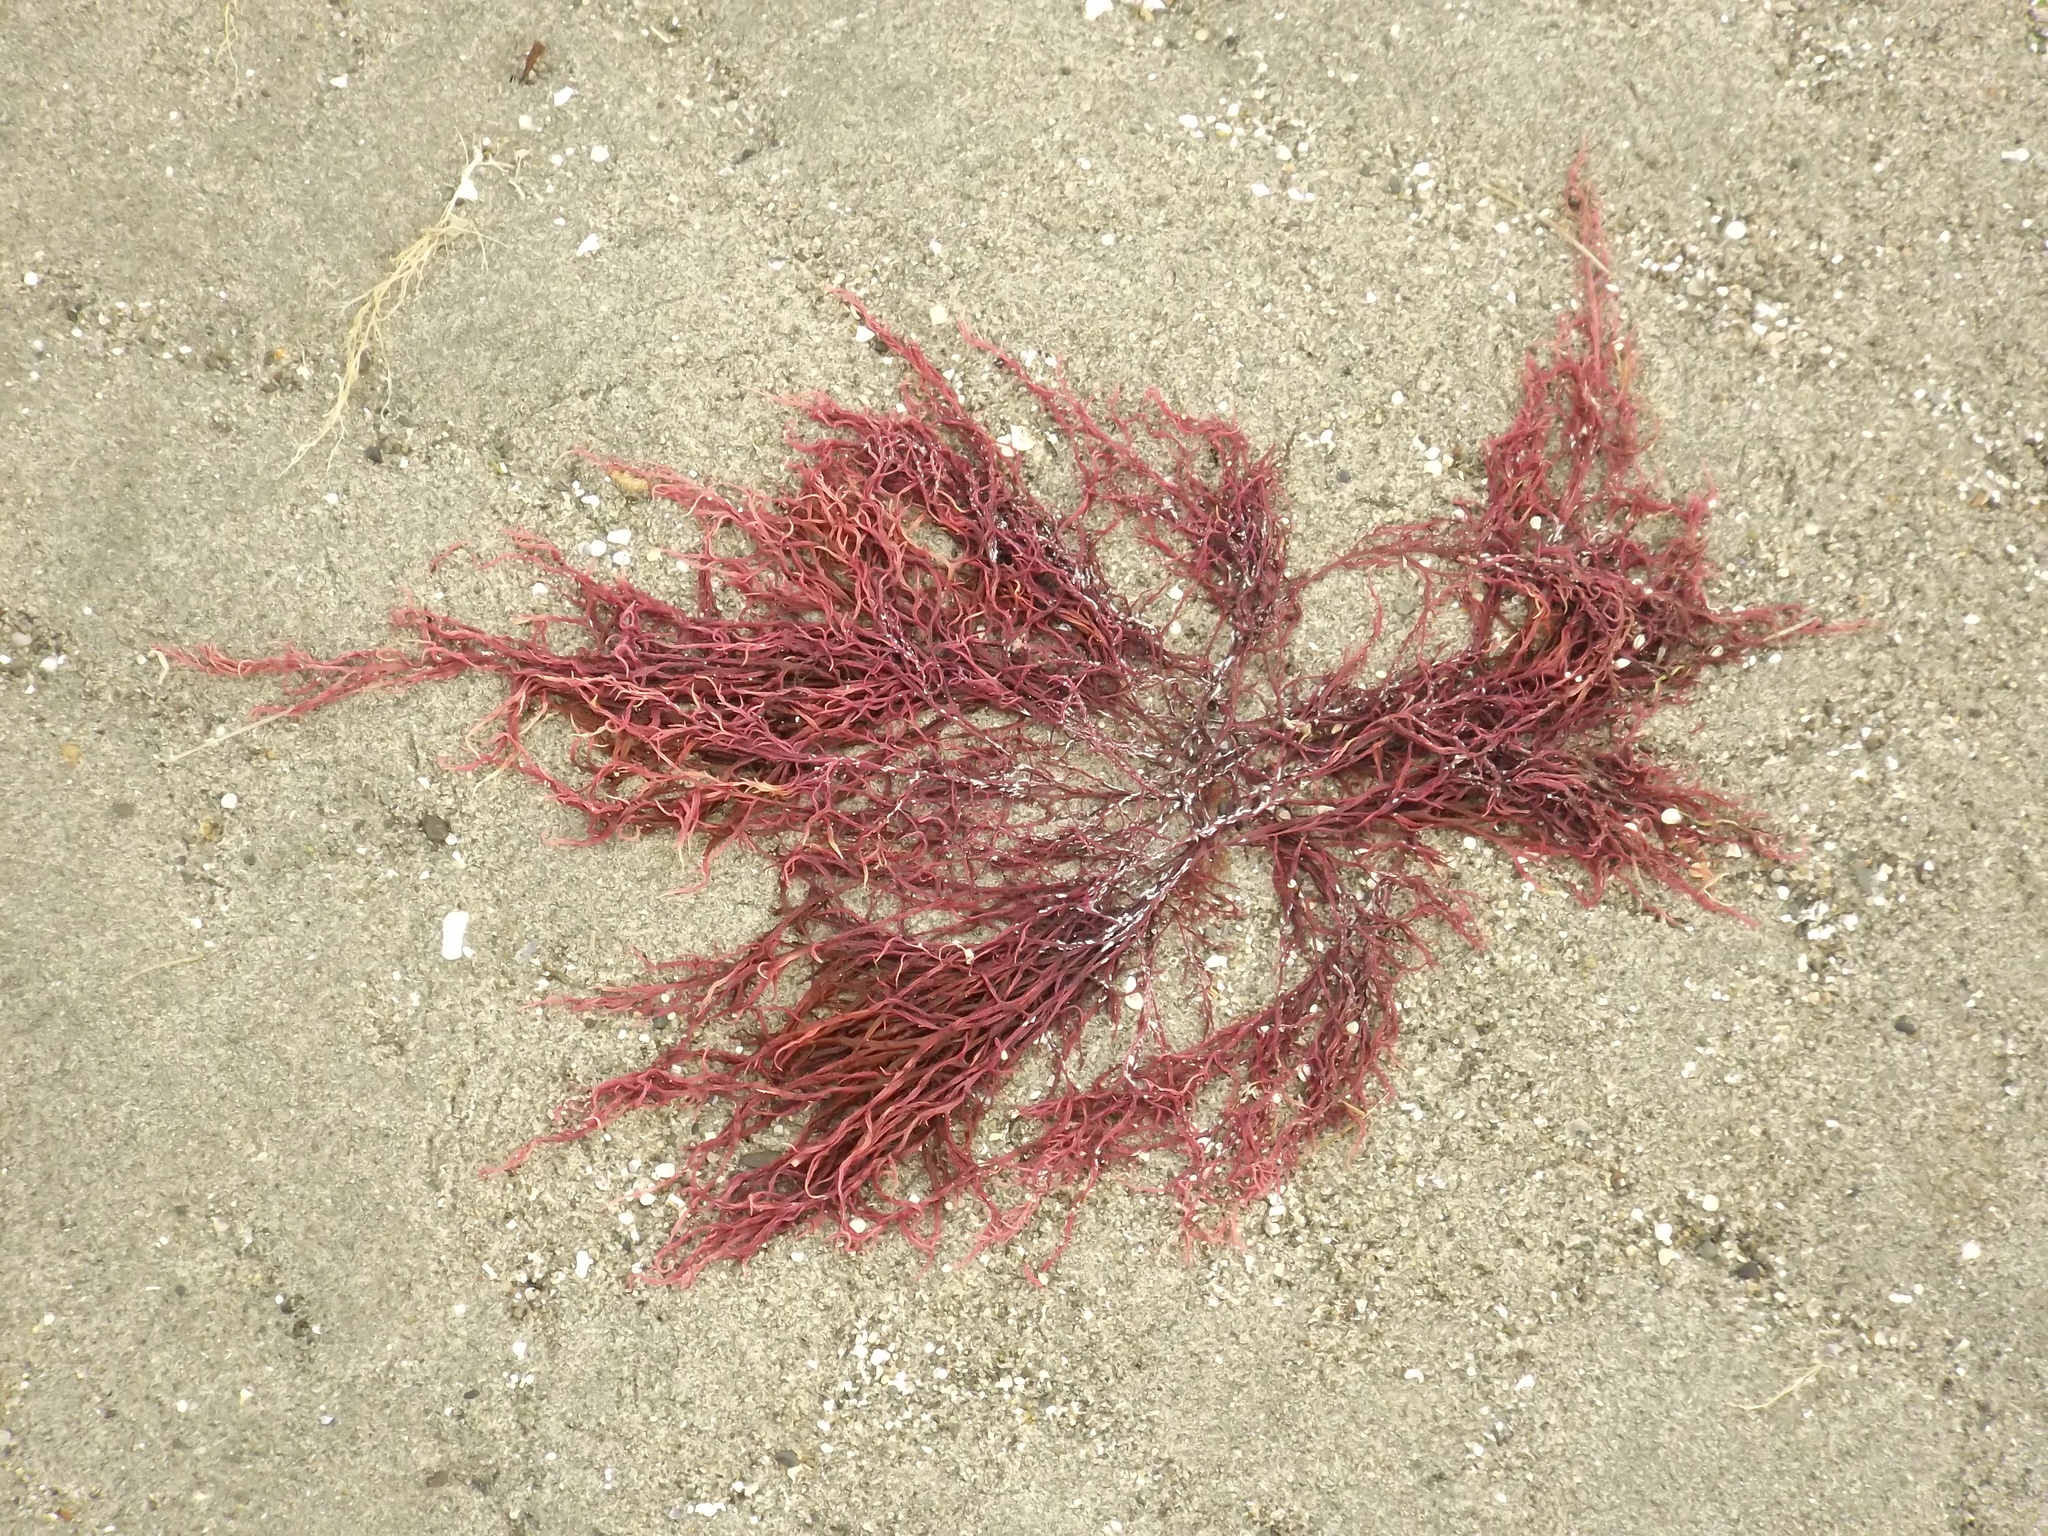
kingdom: Plantae
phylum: Rhodophyta
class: Florideophyceae
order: Gigartinales
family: Solieriaceae
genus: Agardhiella
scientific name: Agardhiella subulata
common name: Agardh's red weed
